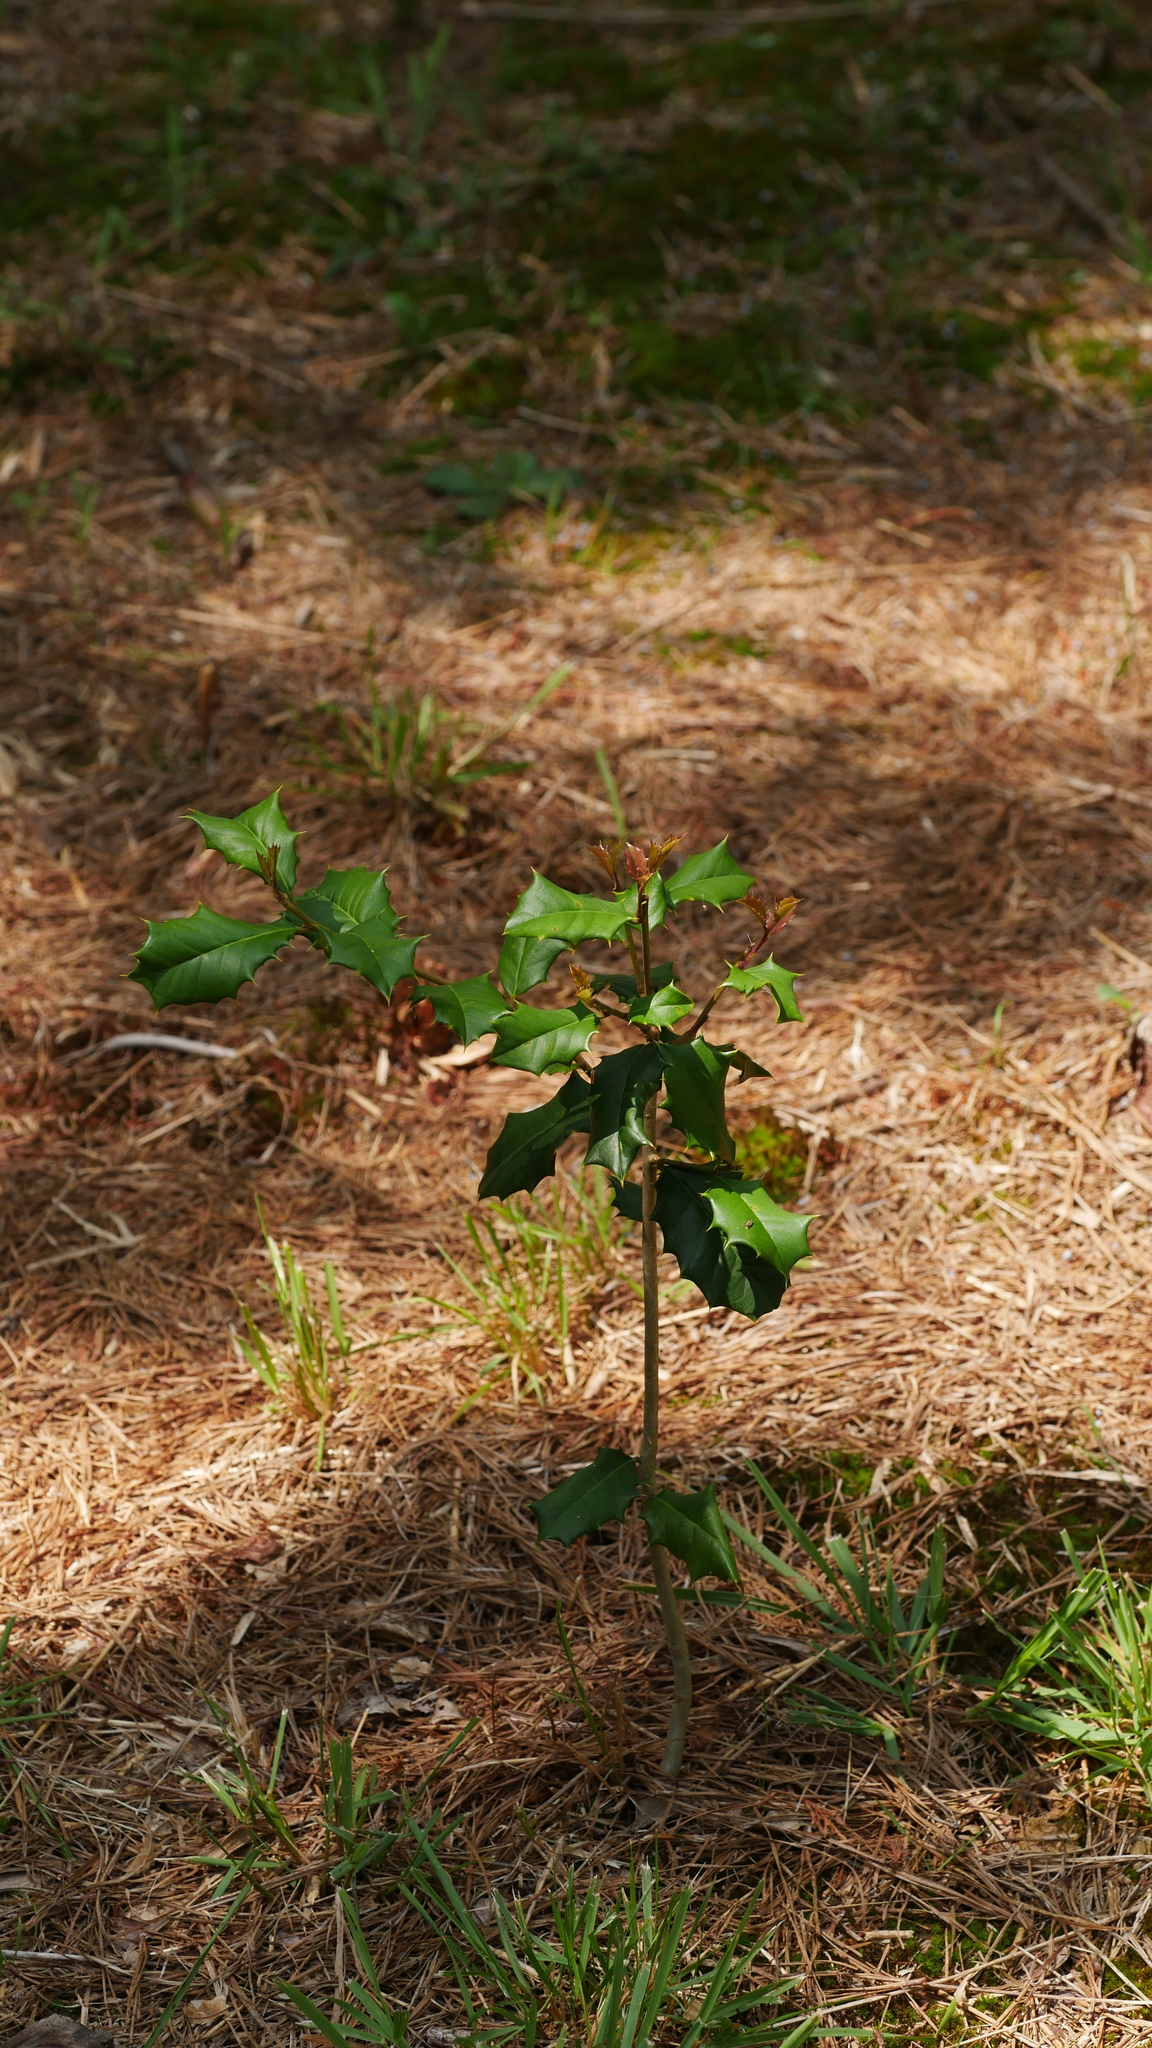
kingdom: Plantae
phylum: Tracheophyta
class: Magnoliopsida
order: Aquifoliales
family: Aquifoliaceae
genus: Ilex
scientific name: Ilex opaca
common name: American holly
